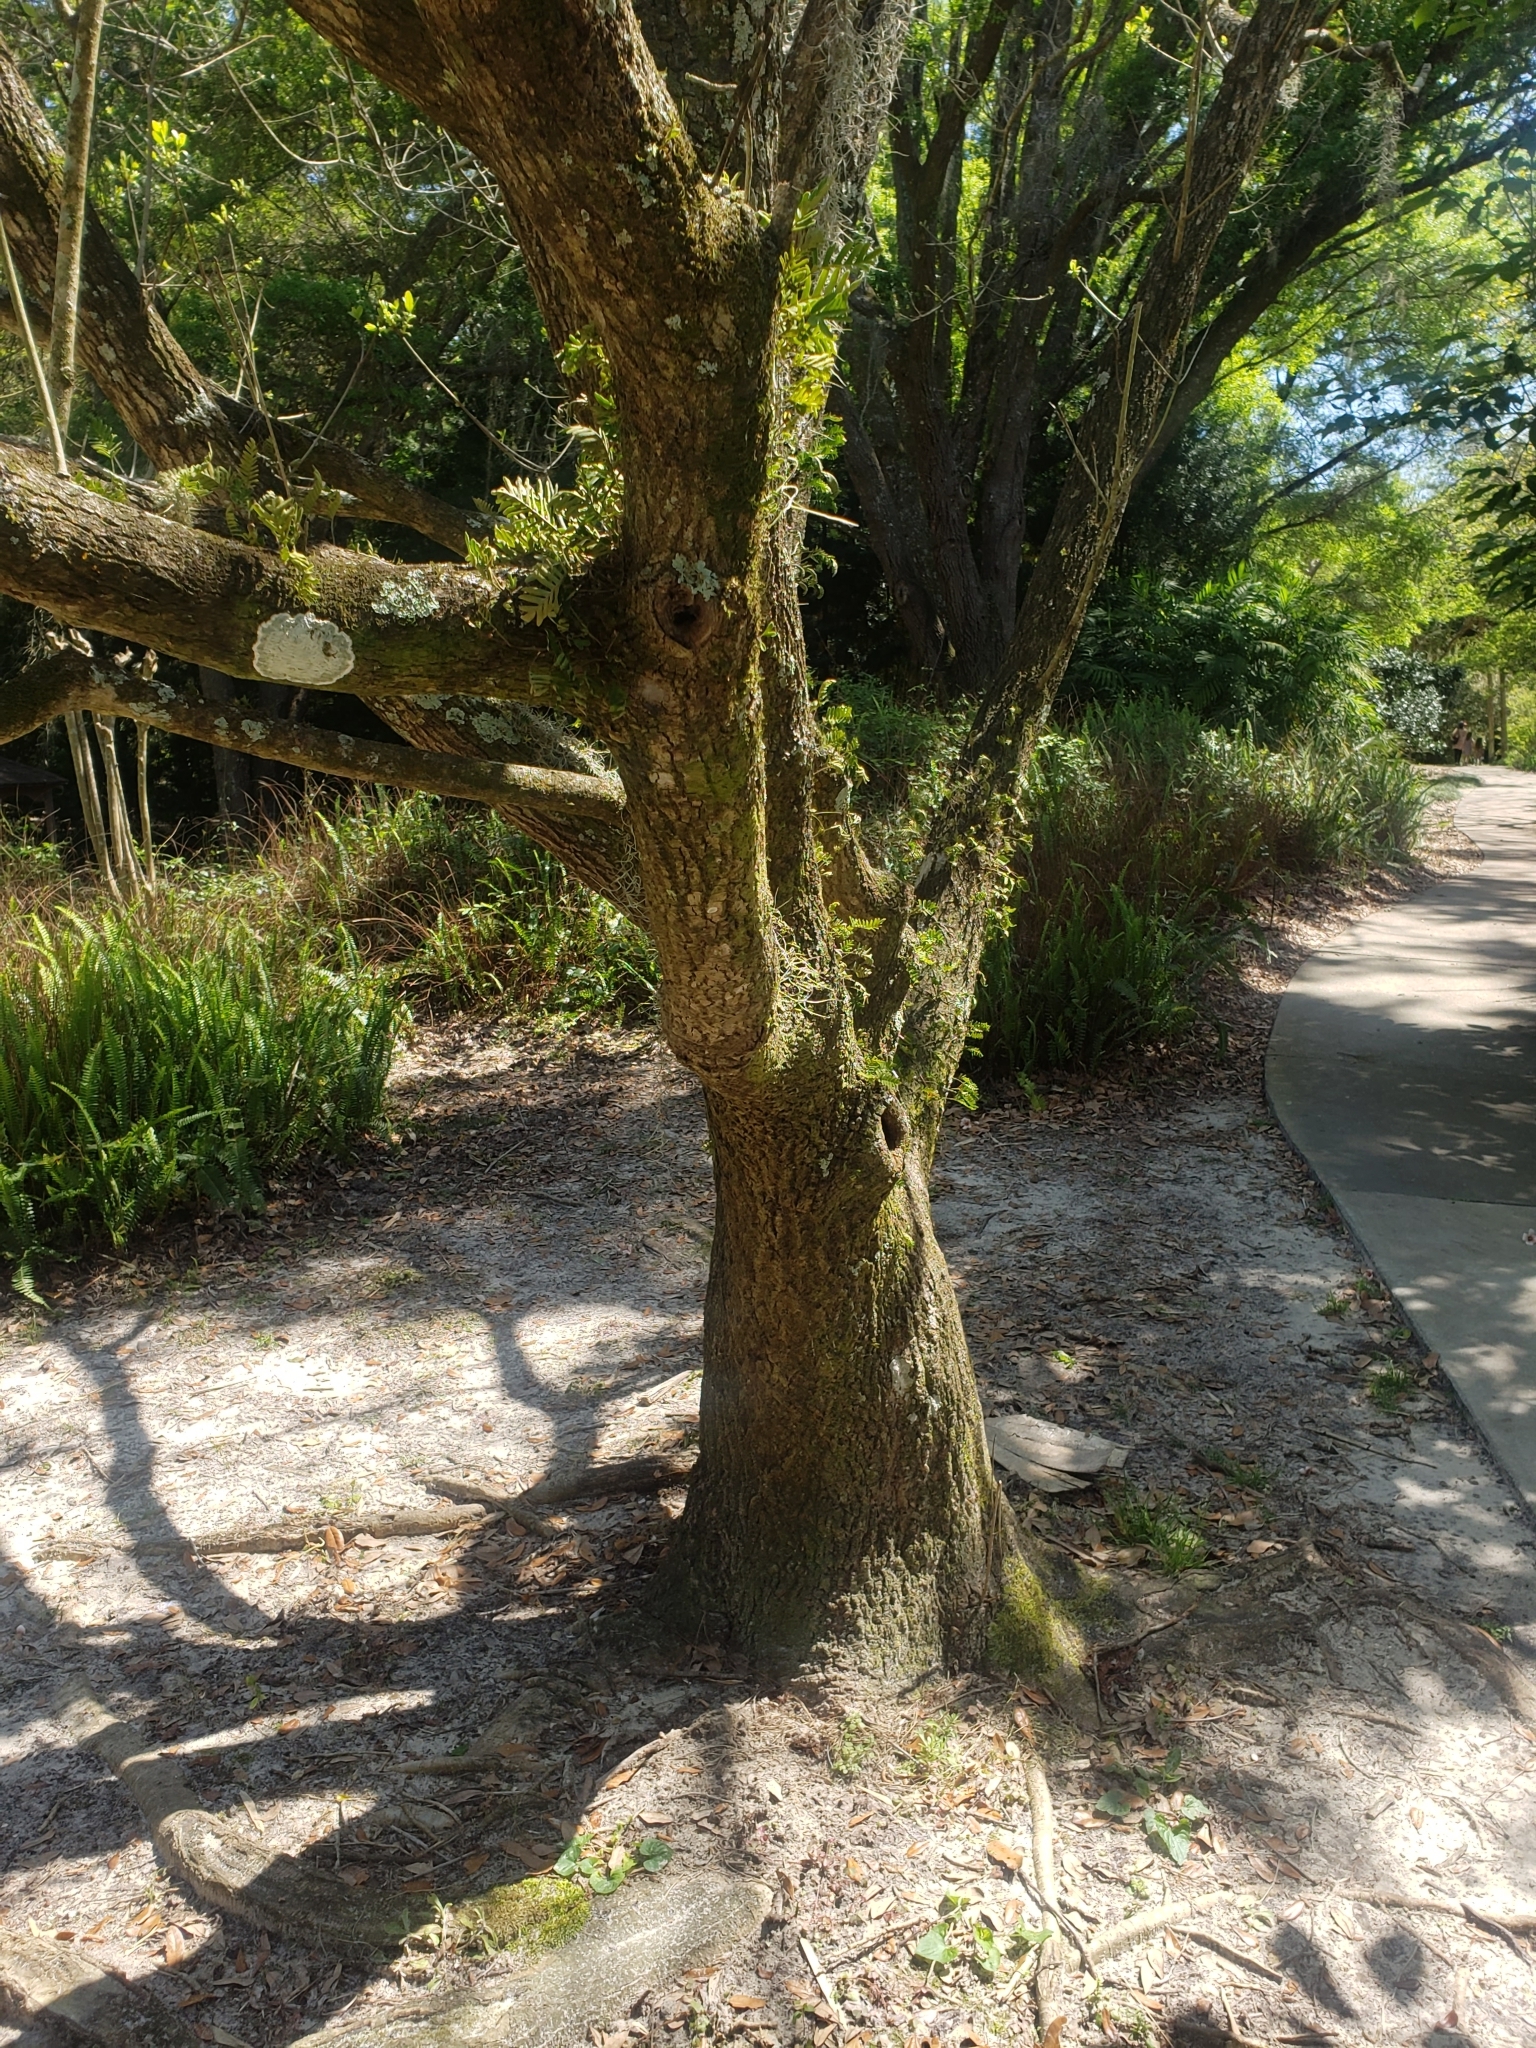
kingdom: Plantae
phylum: Tracheophyta
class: Magnoliopsida
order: Cornales
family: Nyssaceae
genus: Nyssa
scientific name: Nyssa ogeche
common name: Ogeechee tupelo
